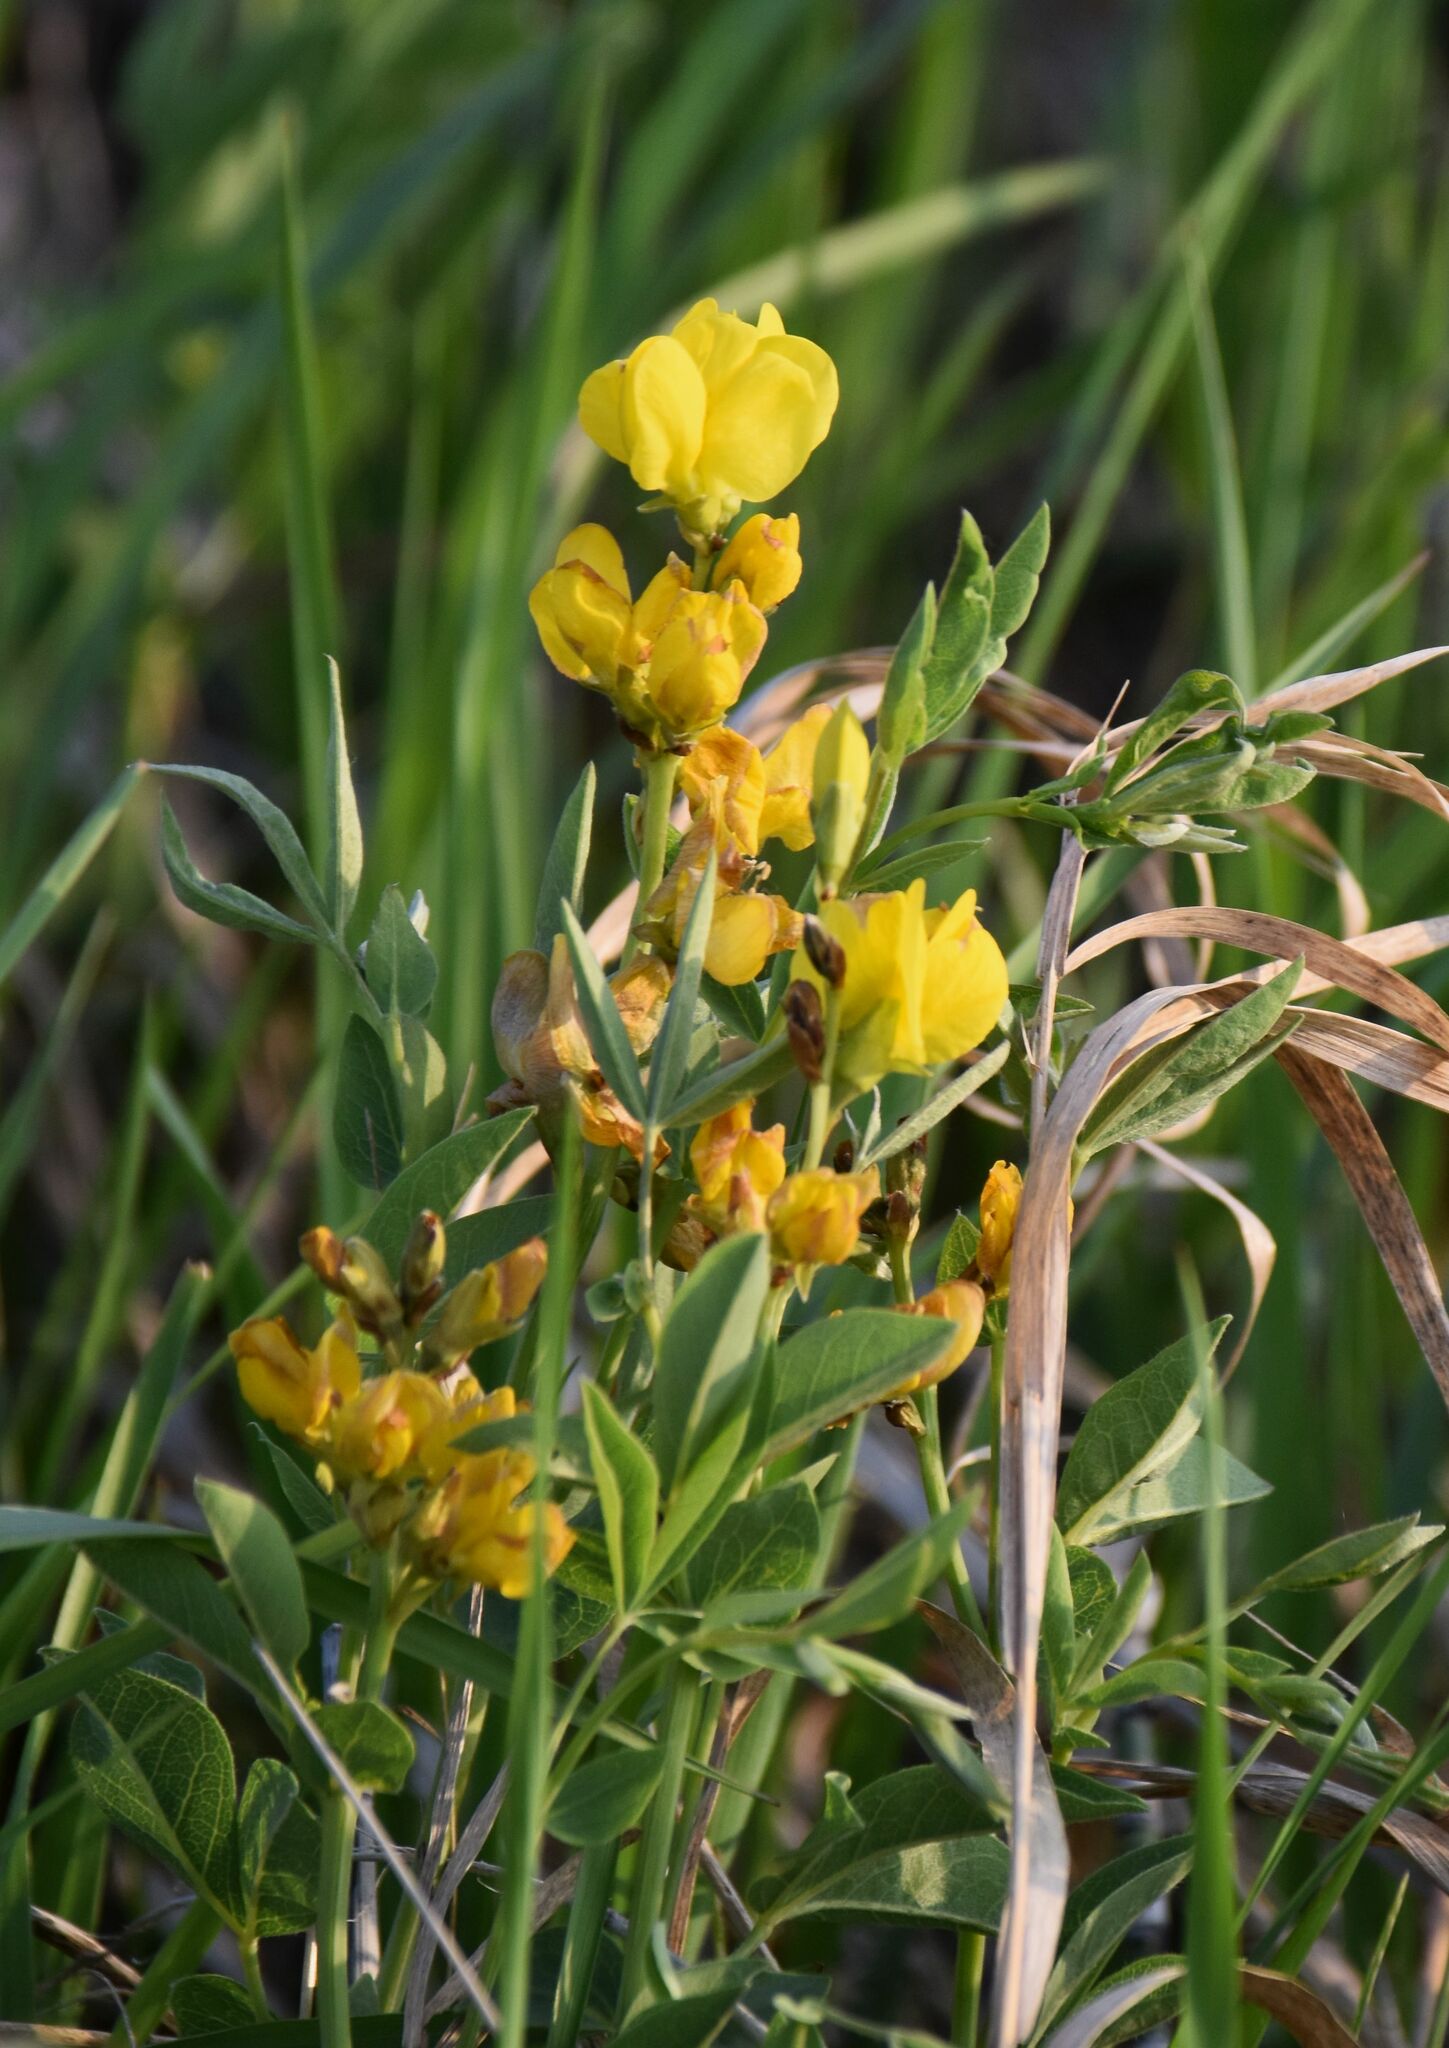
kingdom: Plantae
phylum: Tracheophyta
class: Magnoliopsida
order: Fabales
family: Fabaceae
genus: Thermopsis
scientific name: Thermopsis rhombifolia
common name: Circle-pod-pea
